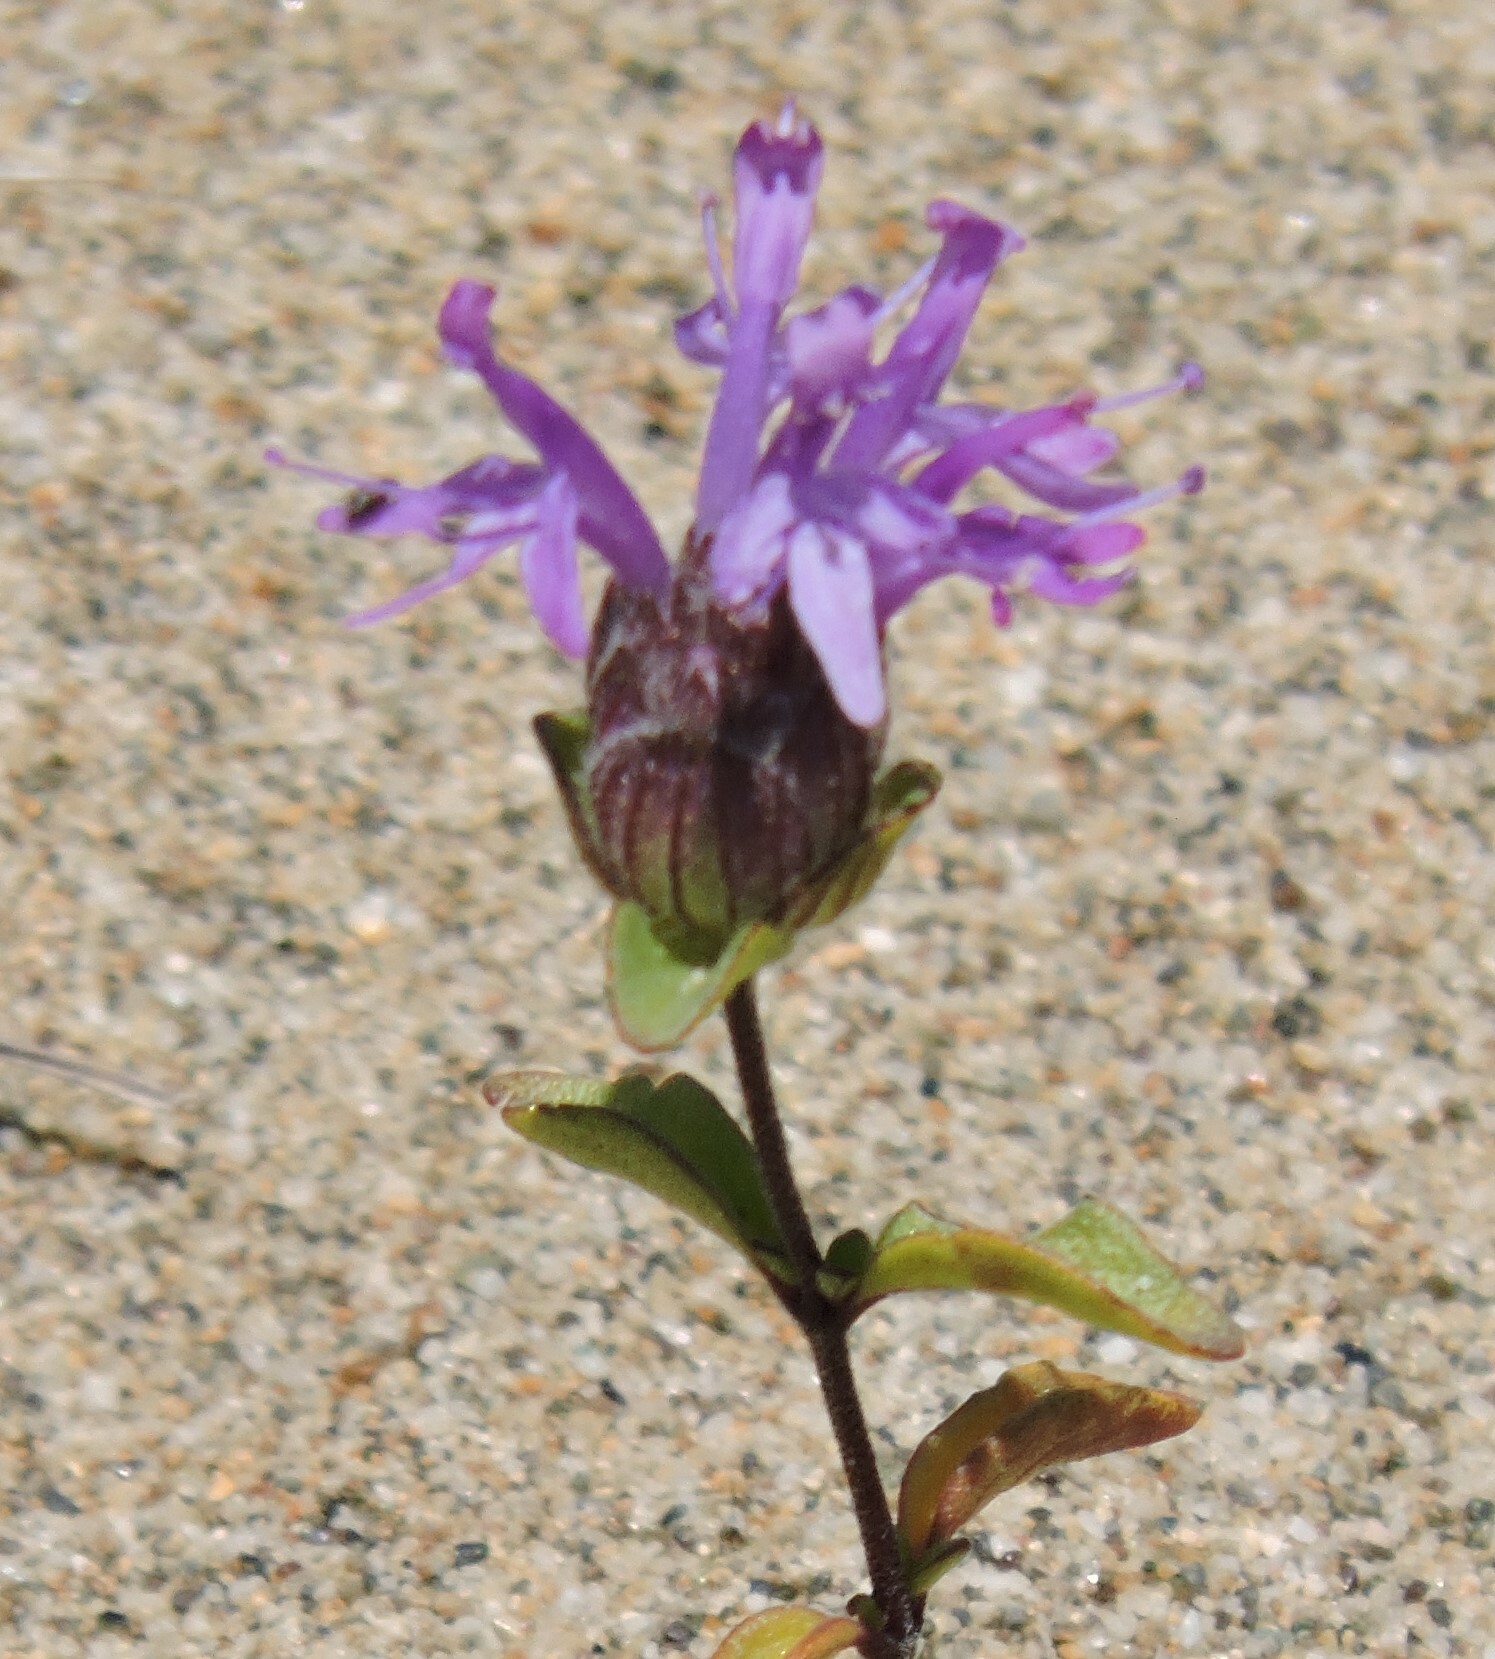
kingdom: Plantae
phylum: Tracheophyta
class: Magnoliopsida
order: Lamiales
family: Lamiaceae
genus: Monardella
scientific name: Monardella sinuata
